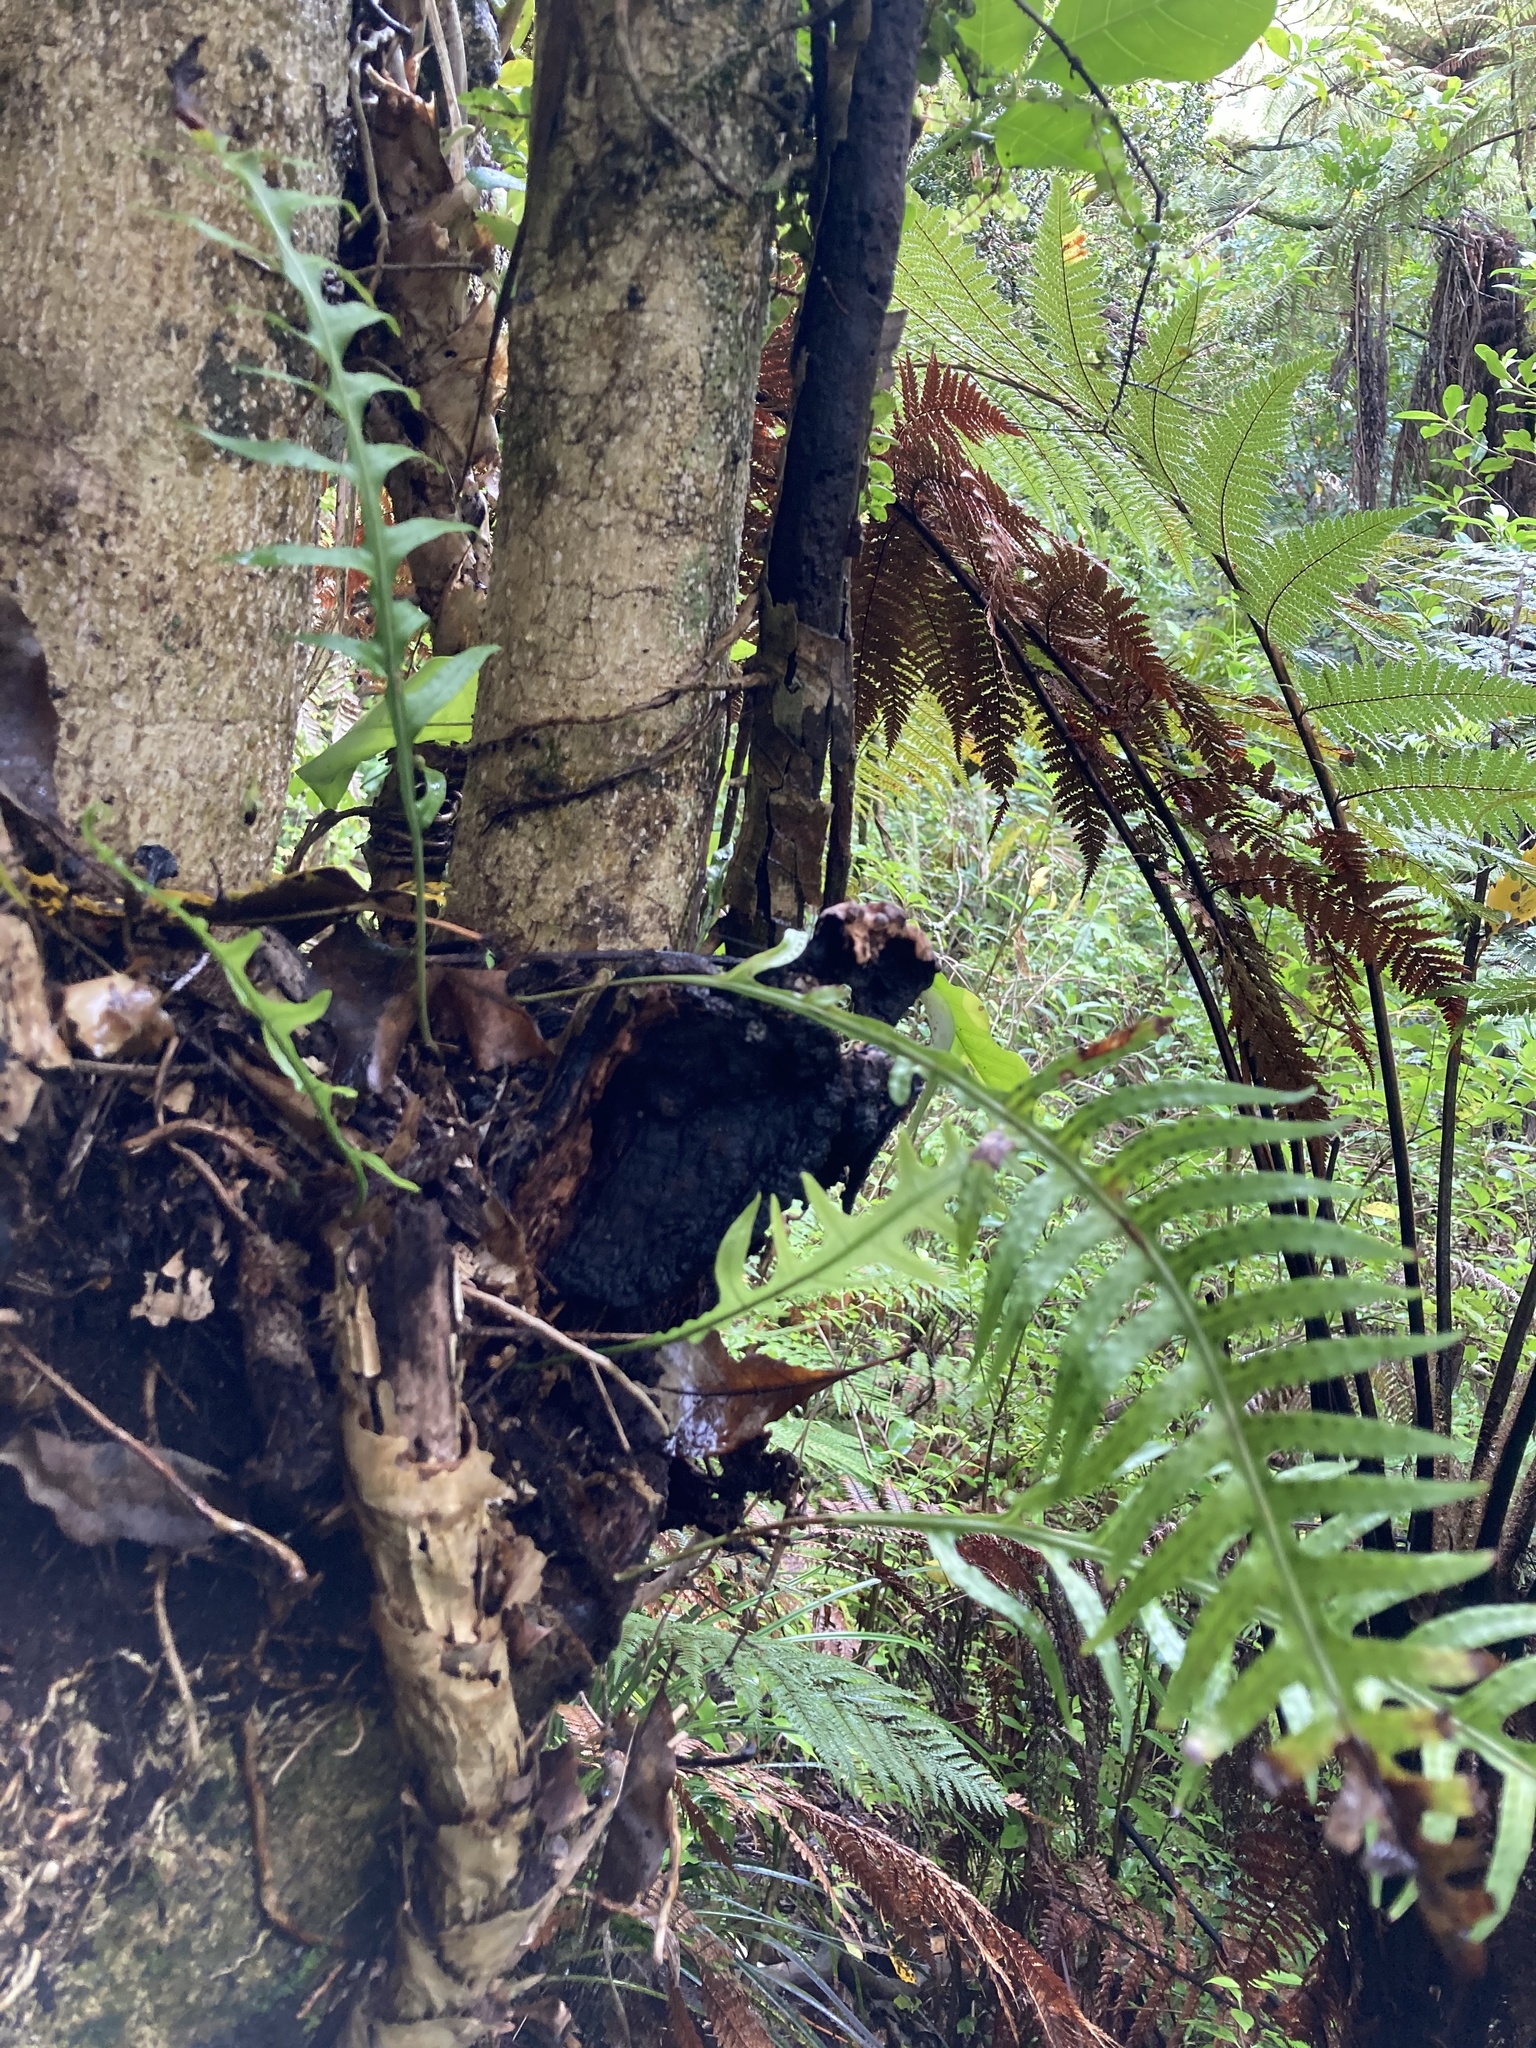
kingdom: Plantae
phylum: Tracheophyta
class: Polypodiopsida
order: Polypodiales
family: Polypodiaceae
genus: Lecanopteris
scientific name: Lecanopteris scandens
